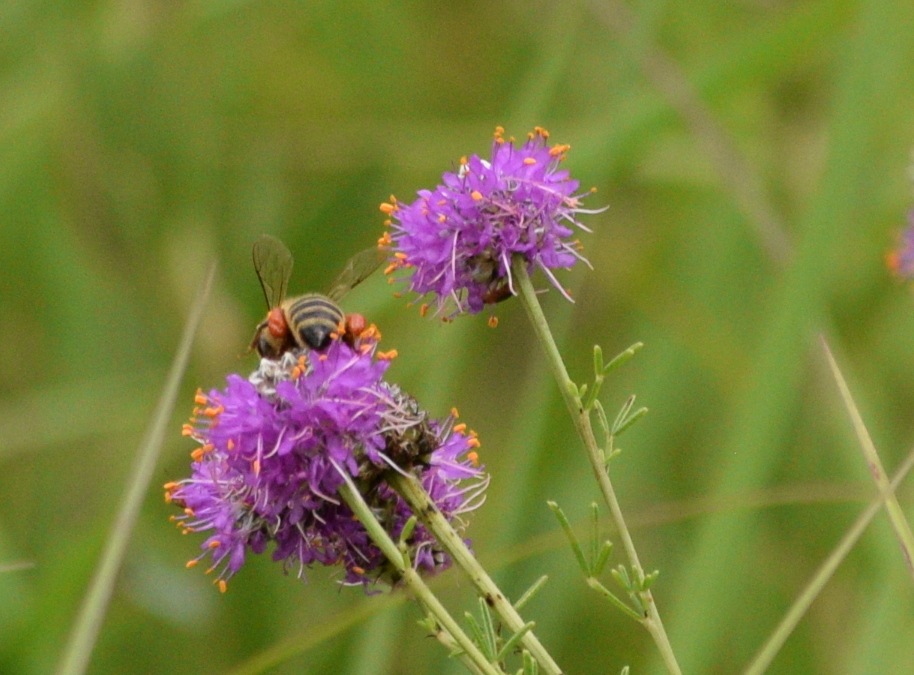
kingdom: Animalia
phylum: Arthropoda
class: Insecta
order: Hymenoptera
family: Apidae
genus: Apis
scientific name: Apis mellifera
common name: Honey bee
